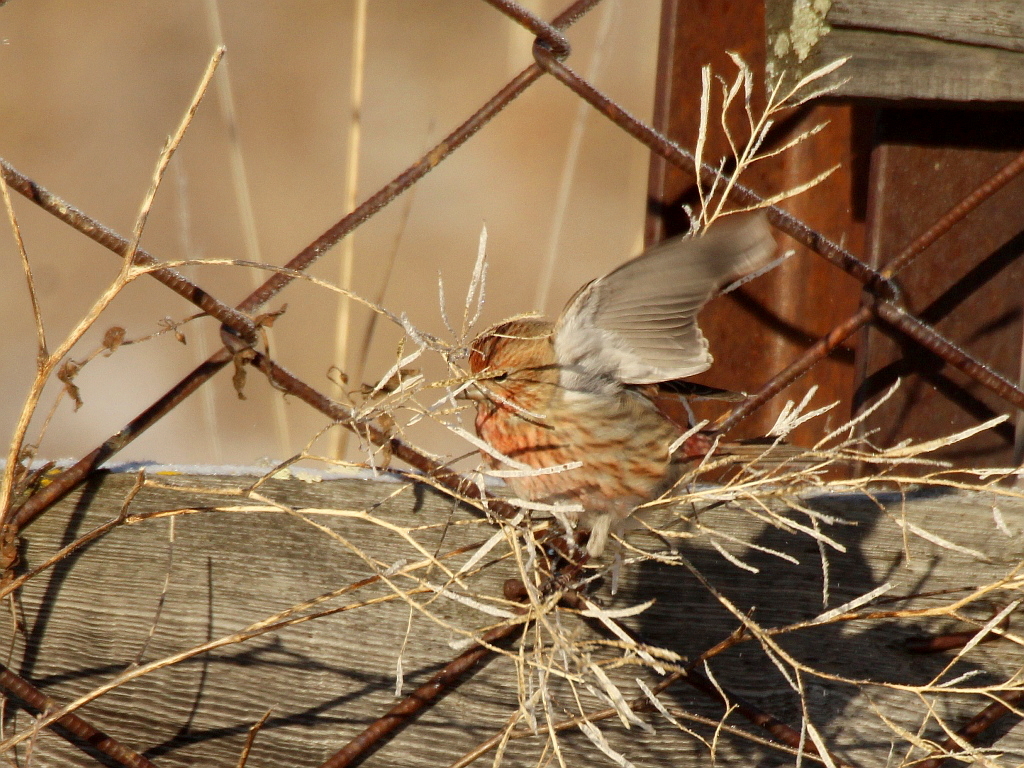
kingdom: Animalia
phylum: Chordata
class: Aves
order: Passeriformes
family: Fringillidae
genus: Carpodacus
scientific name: Carpodacus roseus
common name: Pallas's rosefinch
